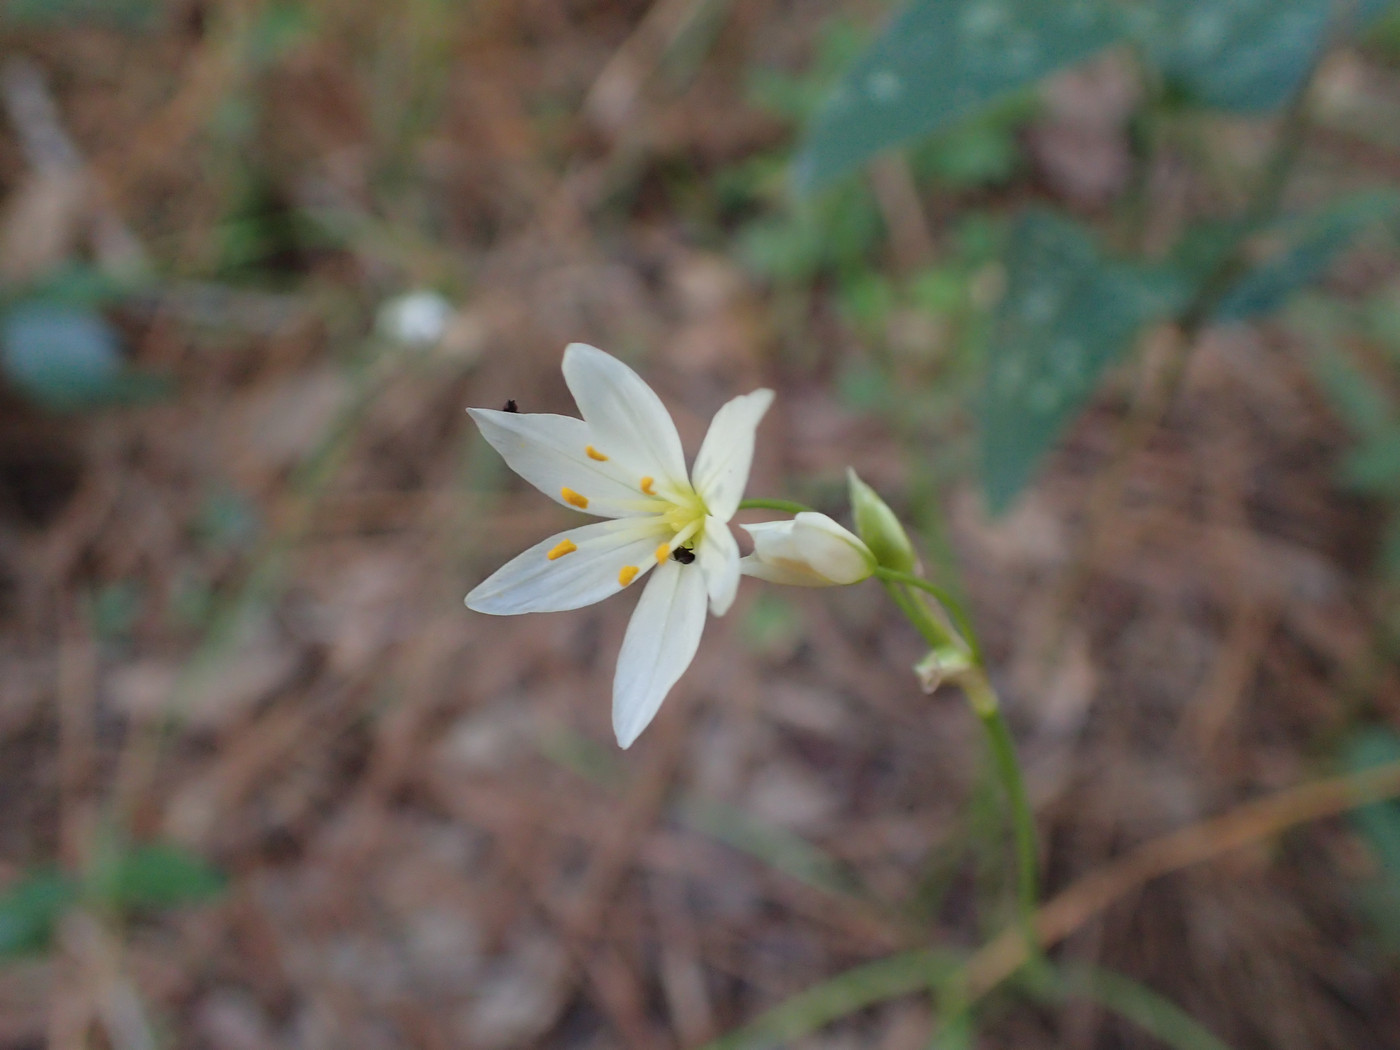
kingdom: Plantae
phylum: Tracheophyta
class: Liliopsida
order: Asparagales
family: Amaryllidaceae
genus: Nothoscordum
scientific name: Nothoscordum bivalve
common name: Crow-poison
